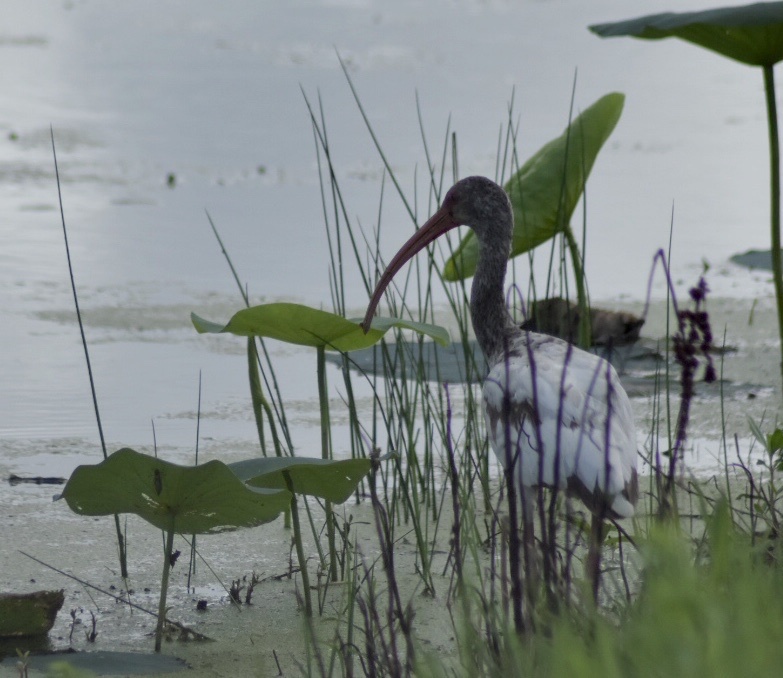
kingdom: Animalia
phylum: Chordata
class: Aves
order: Pelecaniformes
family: Threskiornithidae
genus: Eudocimus
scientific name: Eudocimus albus
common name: White ibis
